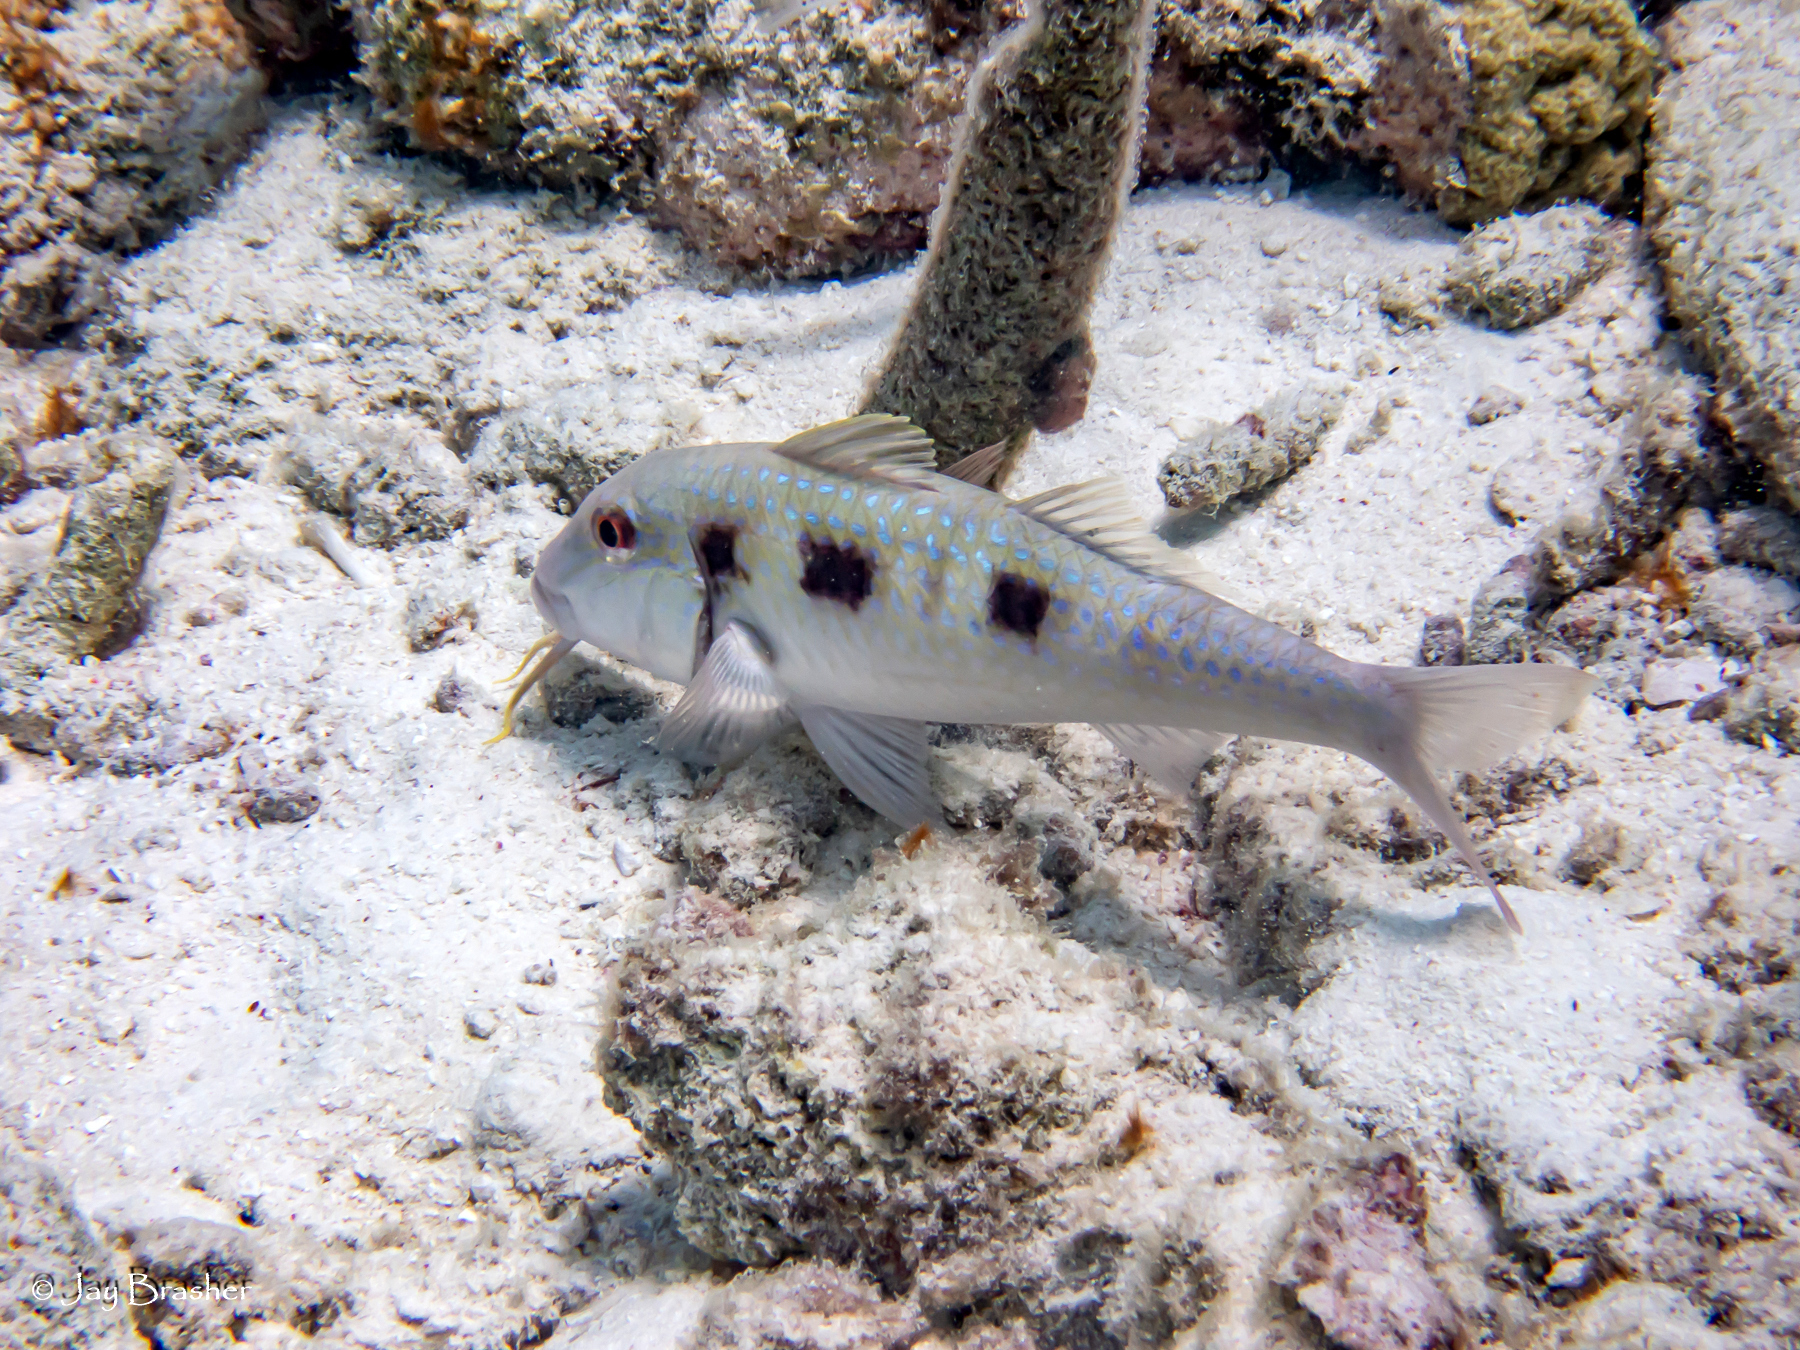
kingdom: Animalia
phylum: Chordata
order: Perciformes
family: Mullidae
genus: Pseudupeneus
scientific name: Pseudupeneus maculatus
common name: Spotted goatfish
